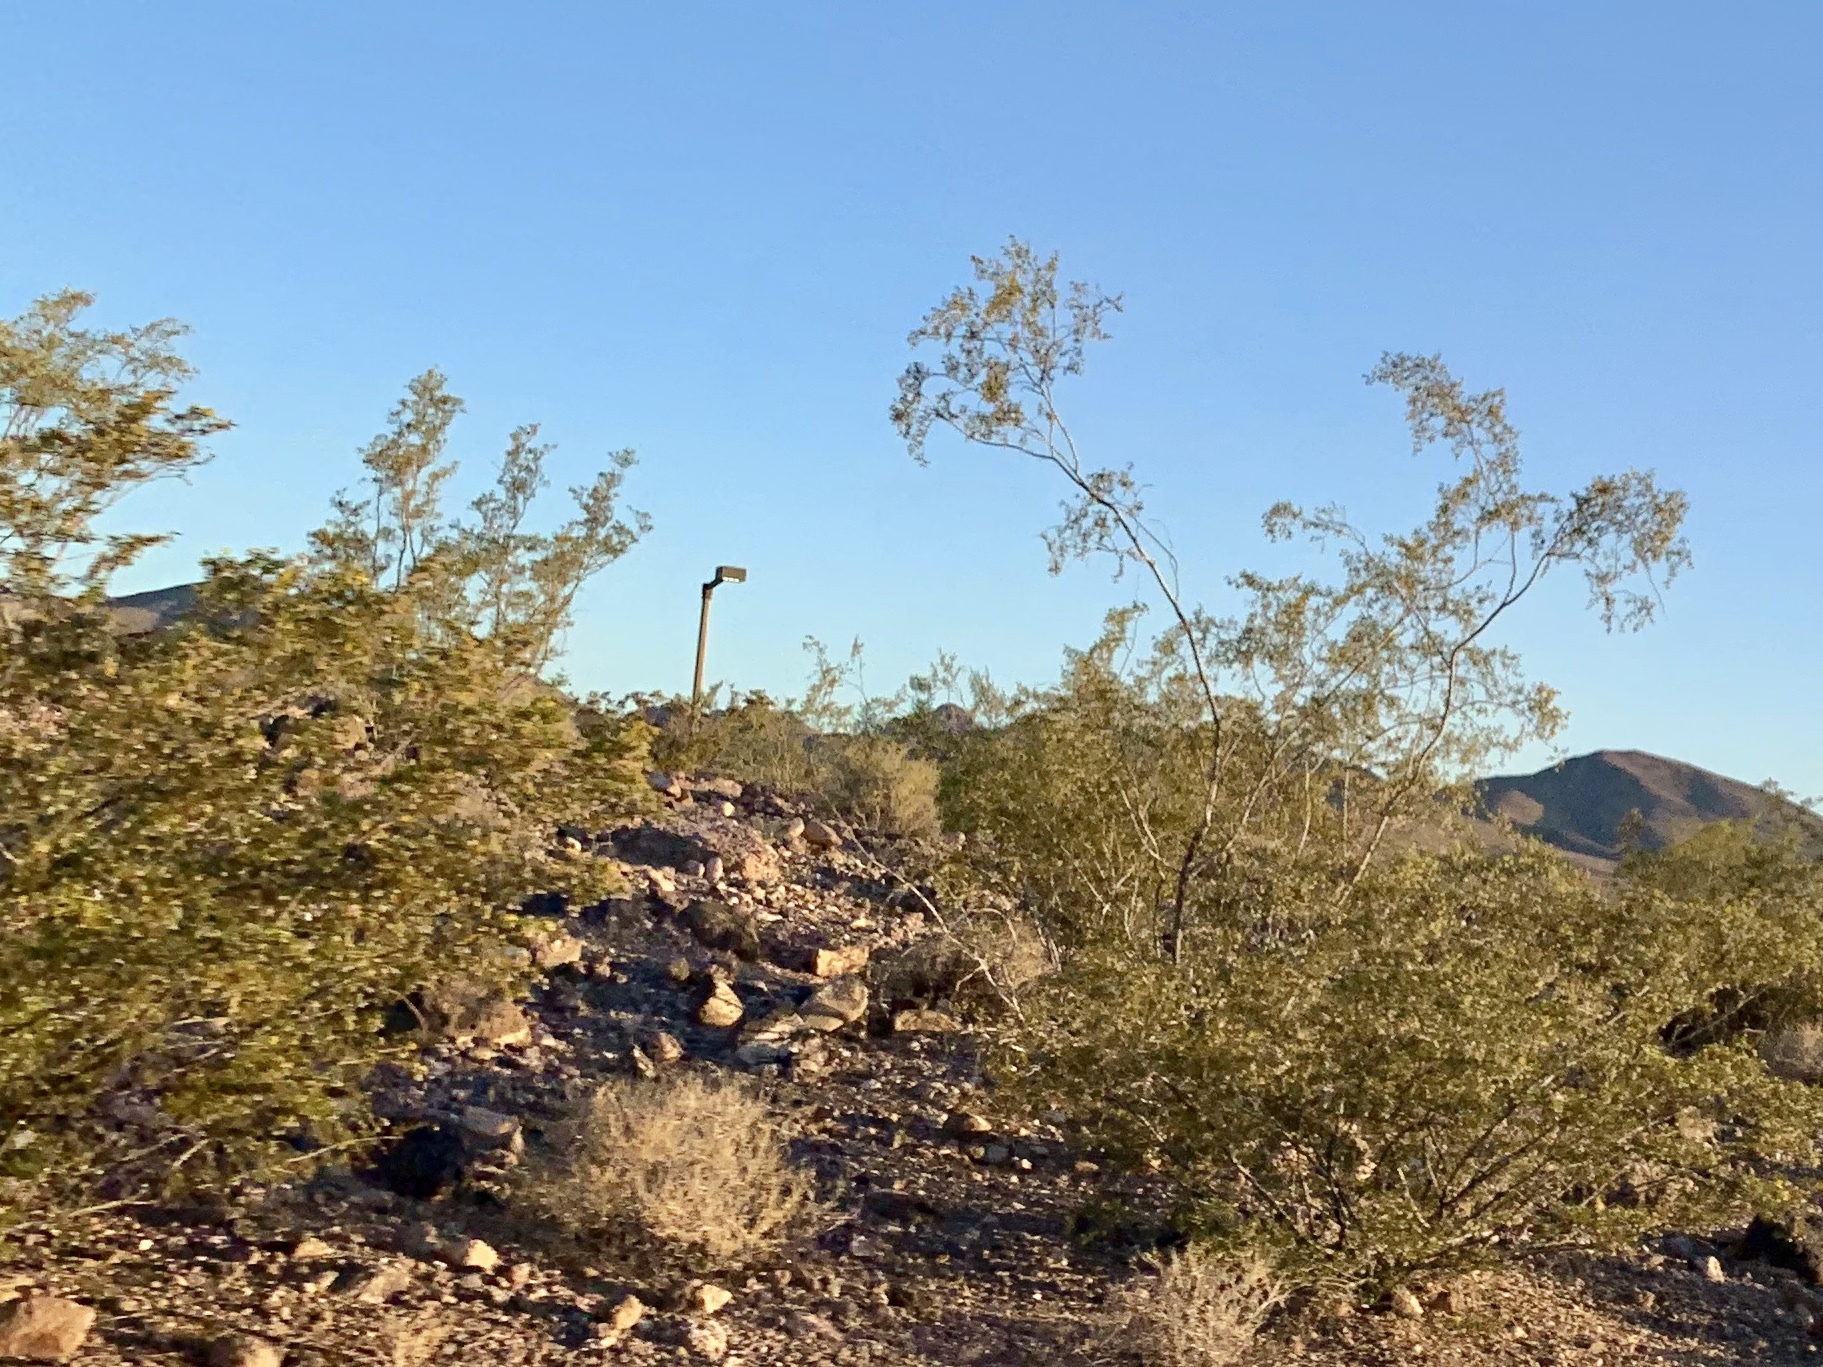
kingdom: Plantae
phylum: Tracheophyta
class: Magnoliopsida
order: Zygophyllales
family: Zygophyllaceae
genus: Larrea
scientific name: Larrea tridentata
